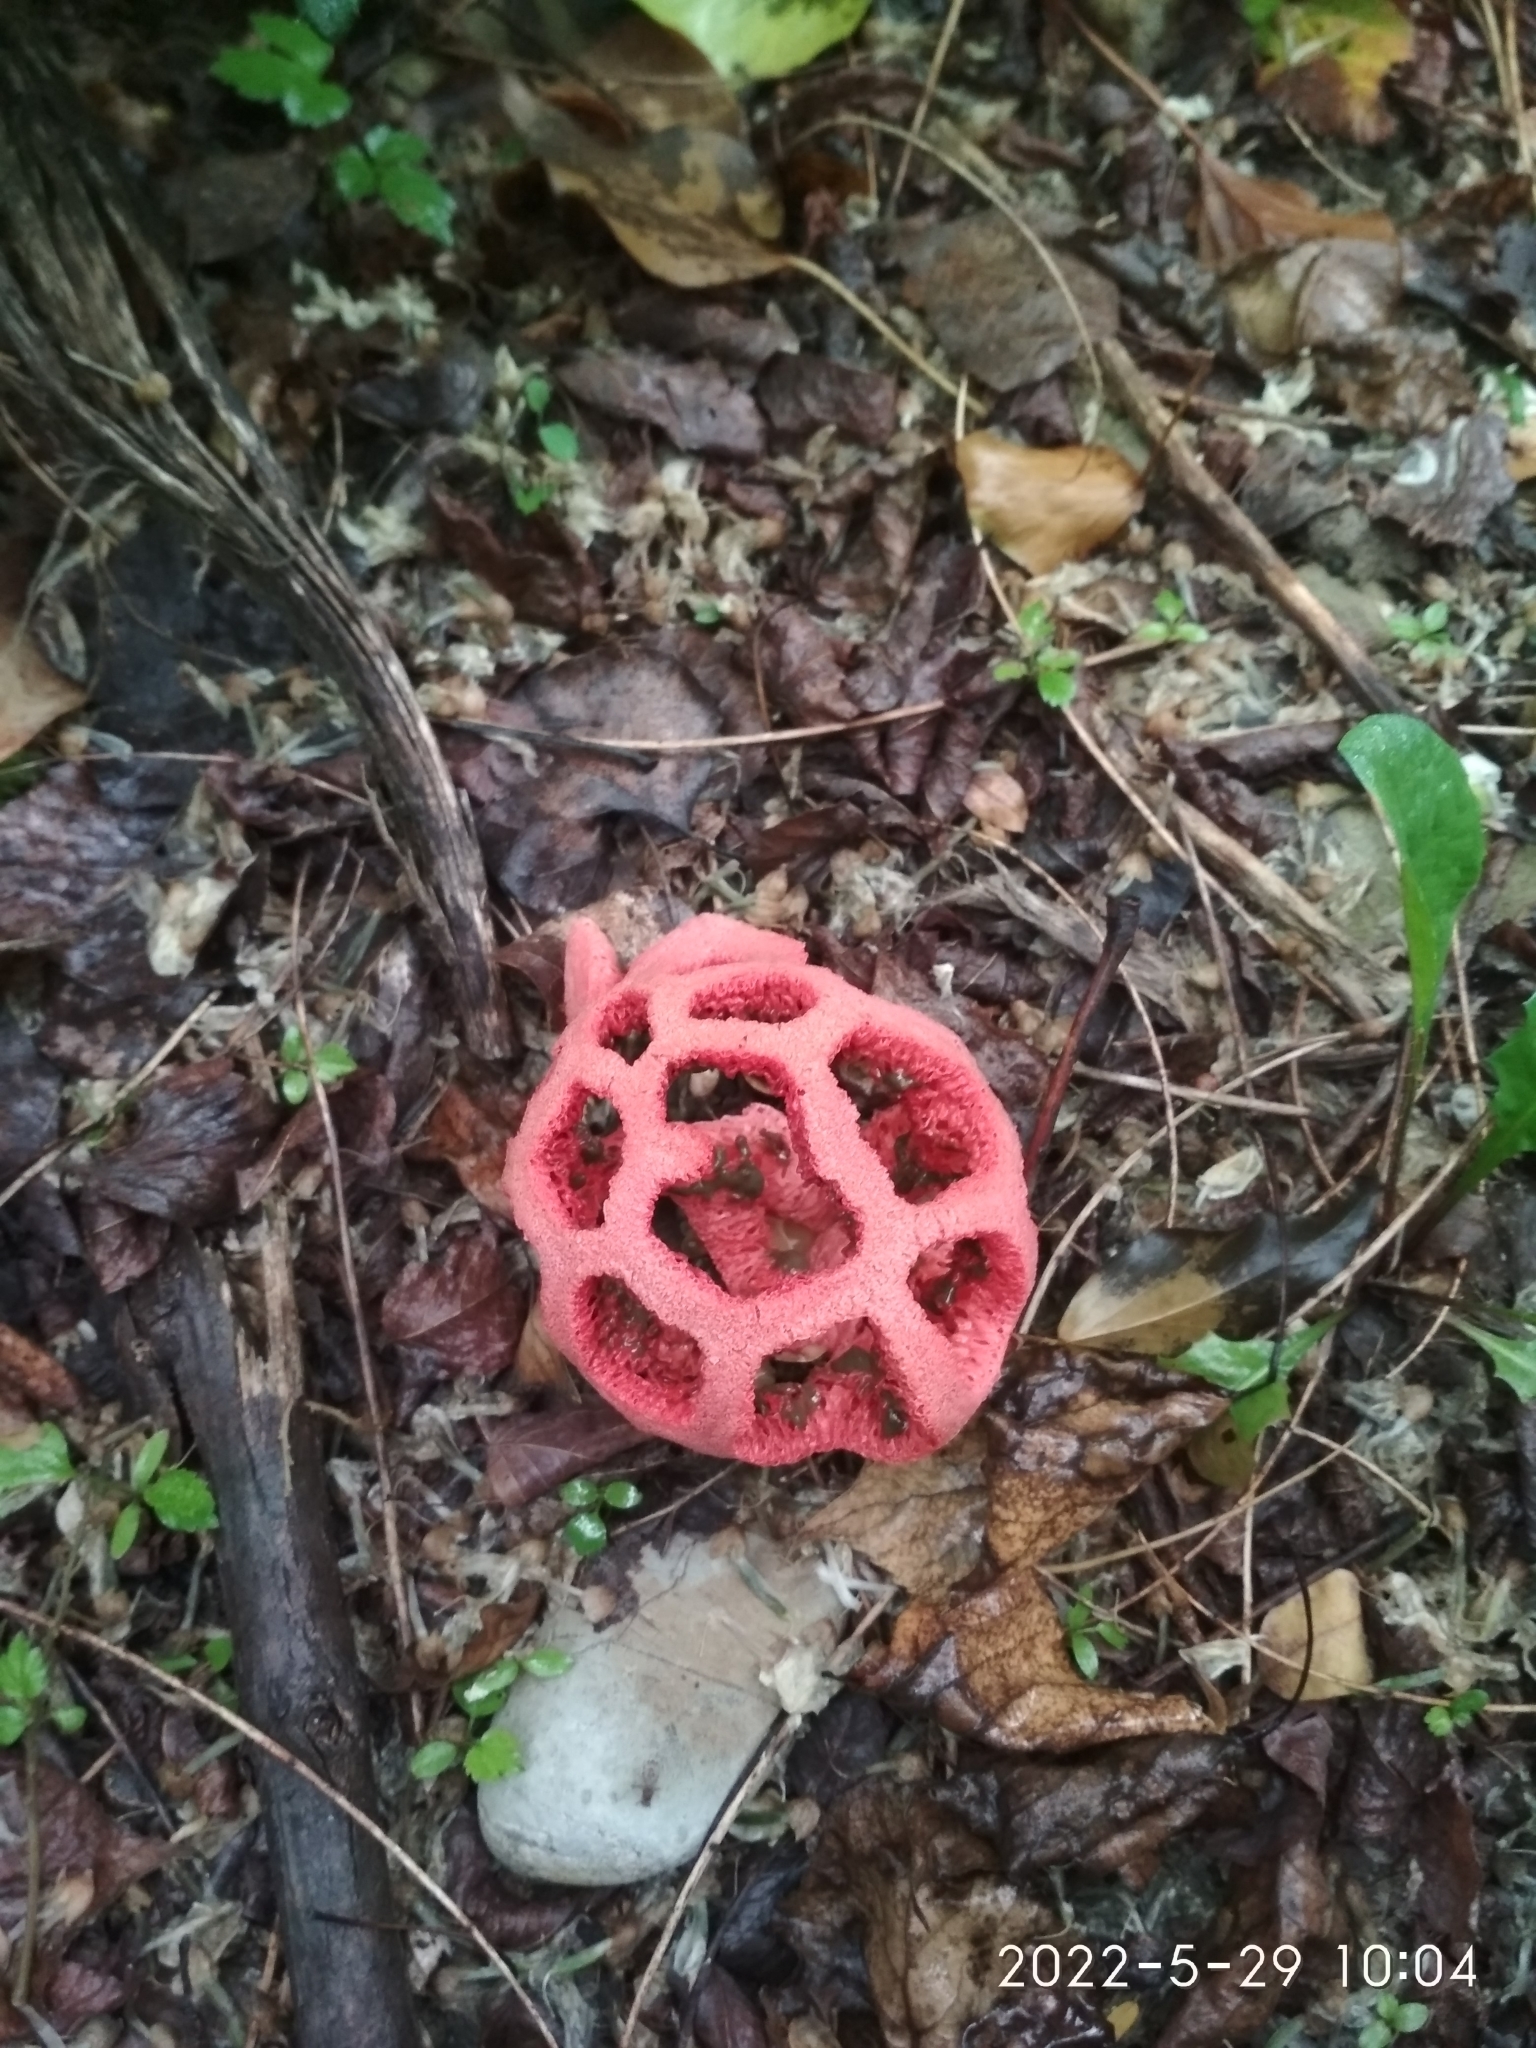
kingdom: Fungi
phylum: Basidiomycota
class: Agaricomycetes
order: Phallales
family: Phallaceae
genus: Clathrus
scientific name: Clathrus ruber
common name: Red cage
